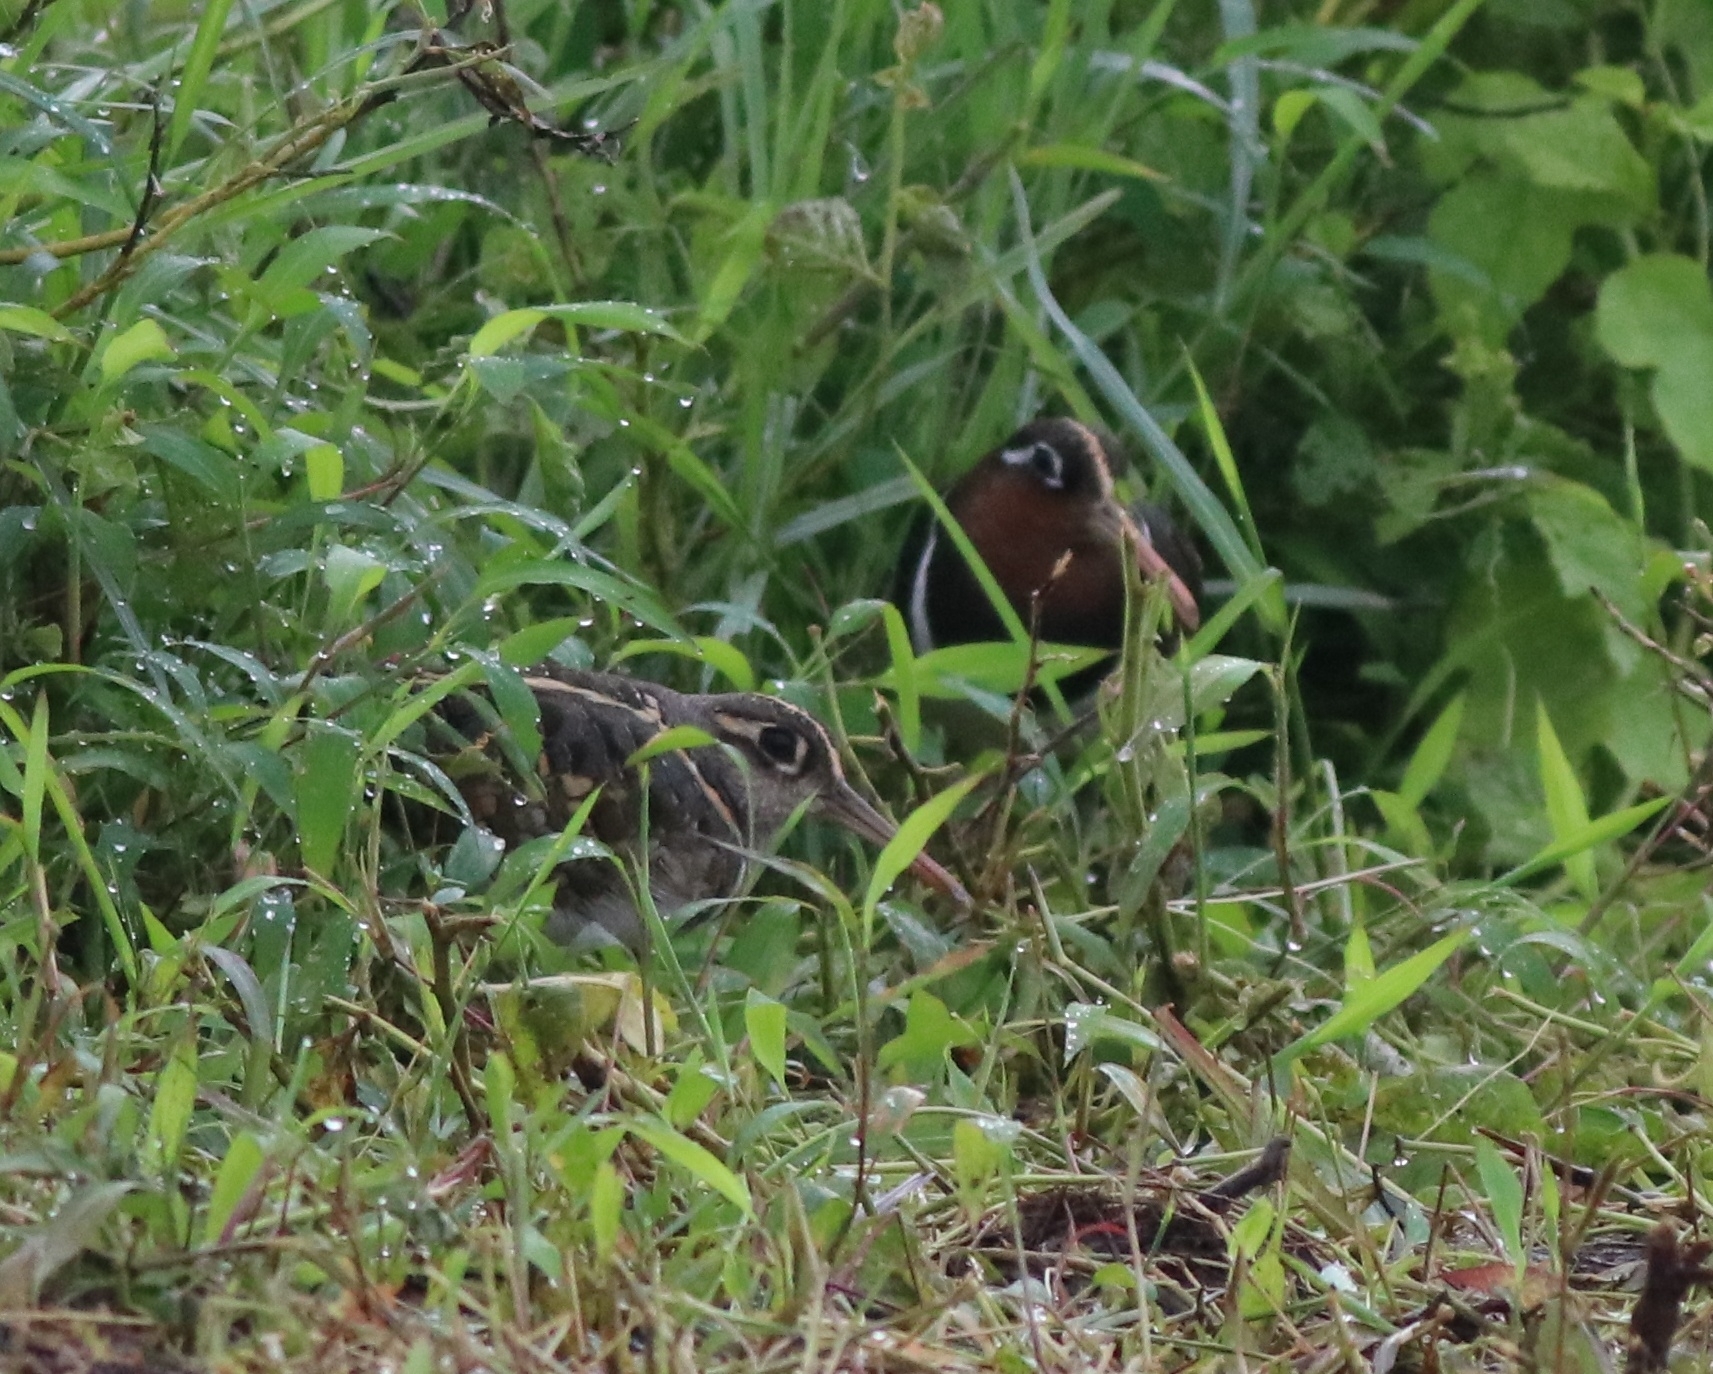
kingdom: Animalia
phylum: Chordata
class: Aves
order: Charadriiformes
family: Rostratulidae
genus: Rostratula
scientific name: Rostratula benghalensis
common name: Greater painted-snipe
